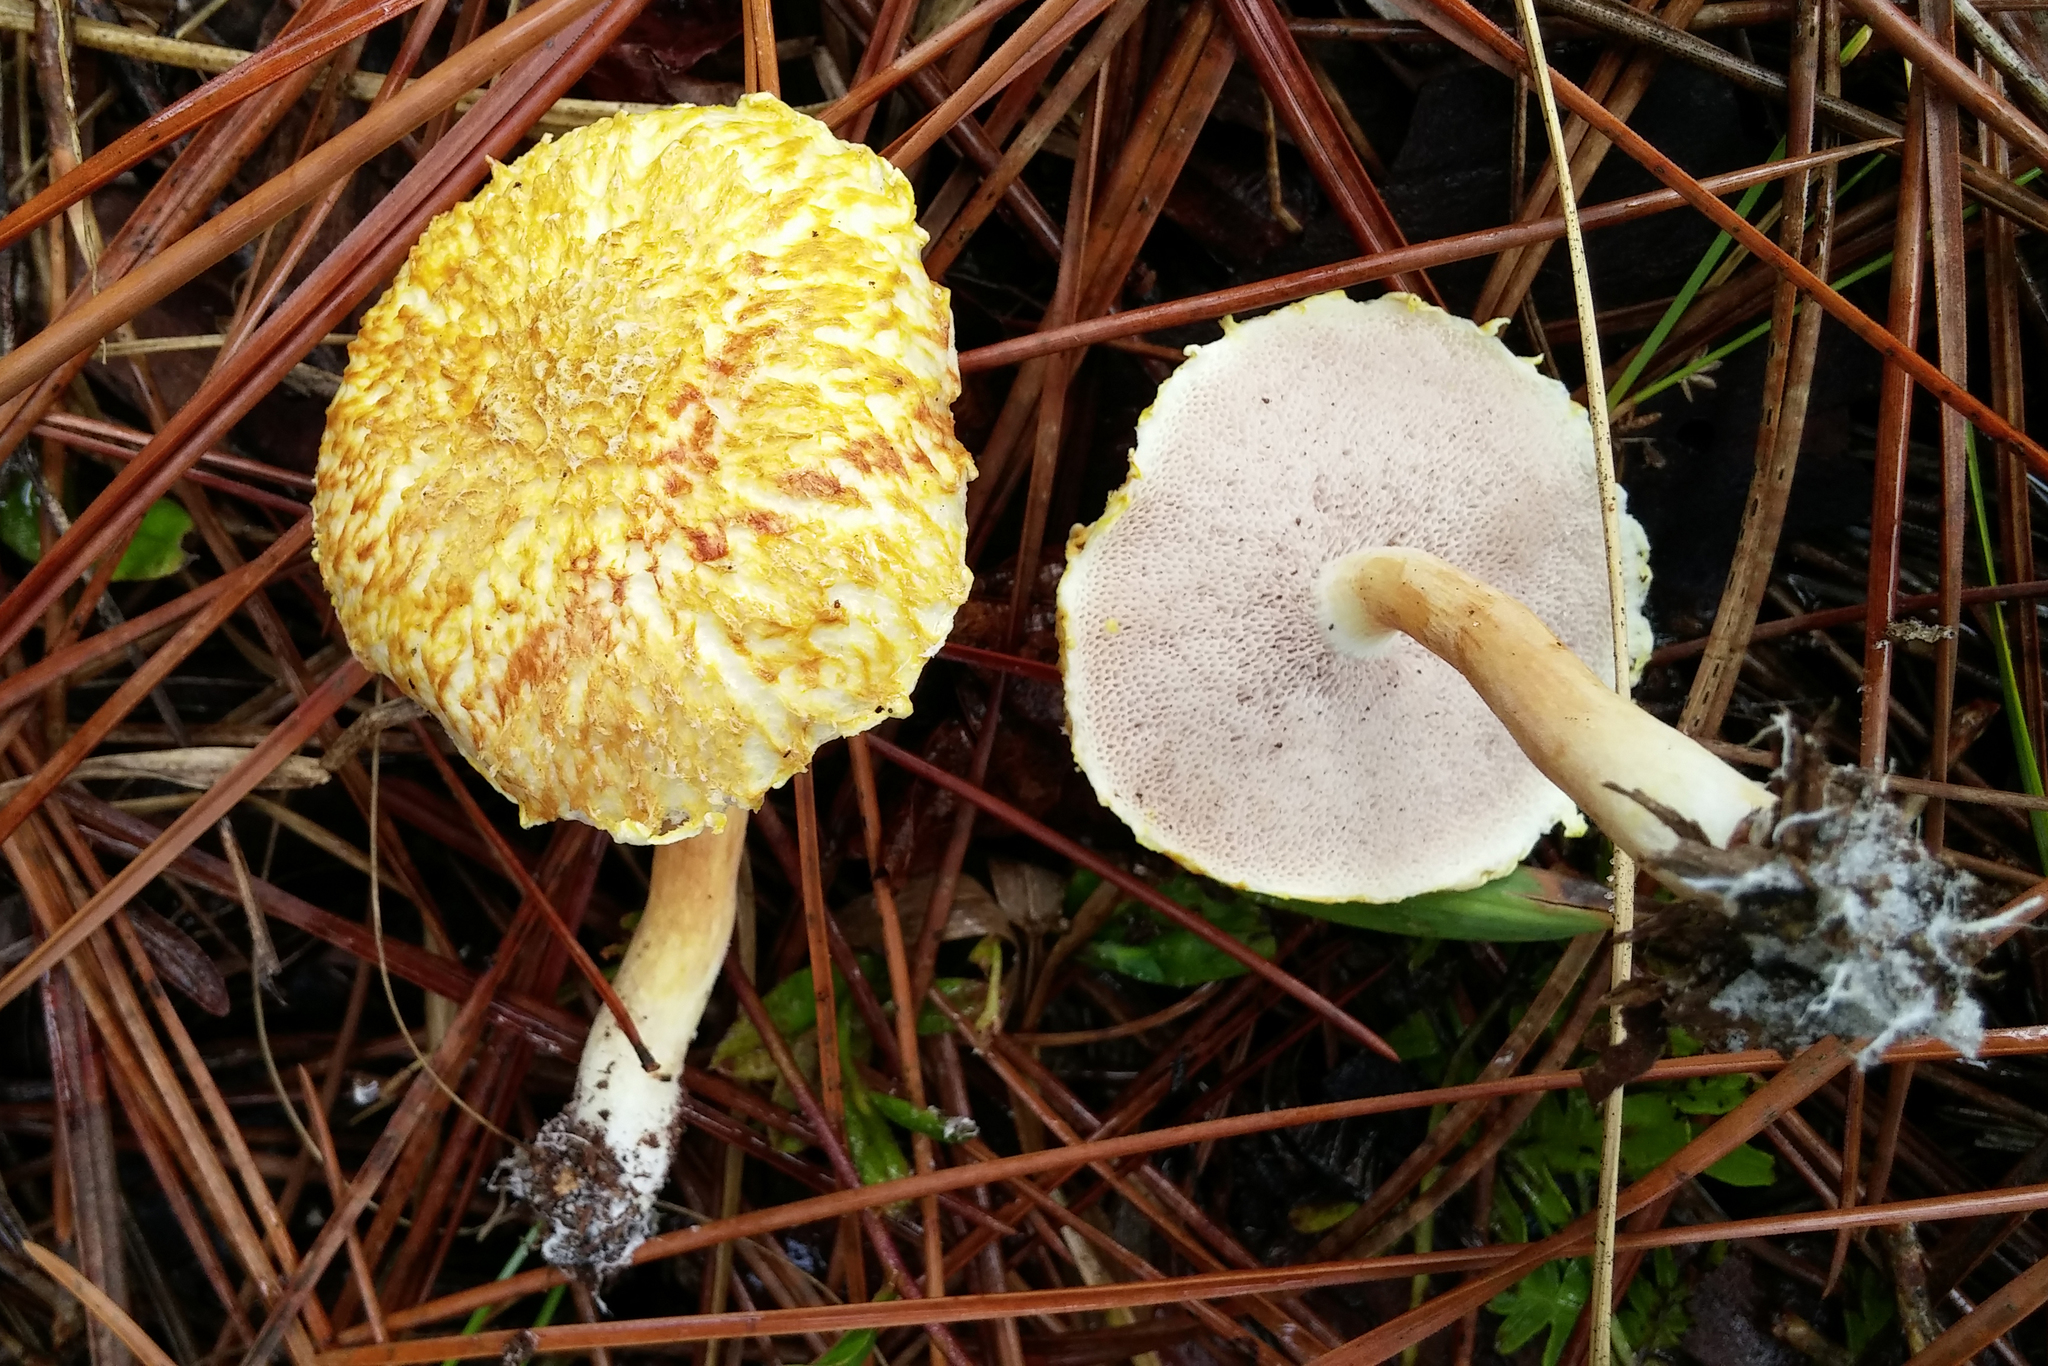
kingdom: Fungi
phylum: Basidiomycota
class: Agaricomycetes
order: Boletales
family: Boletaceae
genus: Veloporphyrellus
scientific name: Veloporphyrellus conicus
